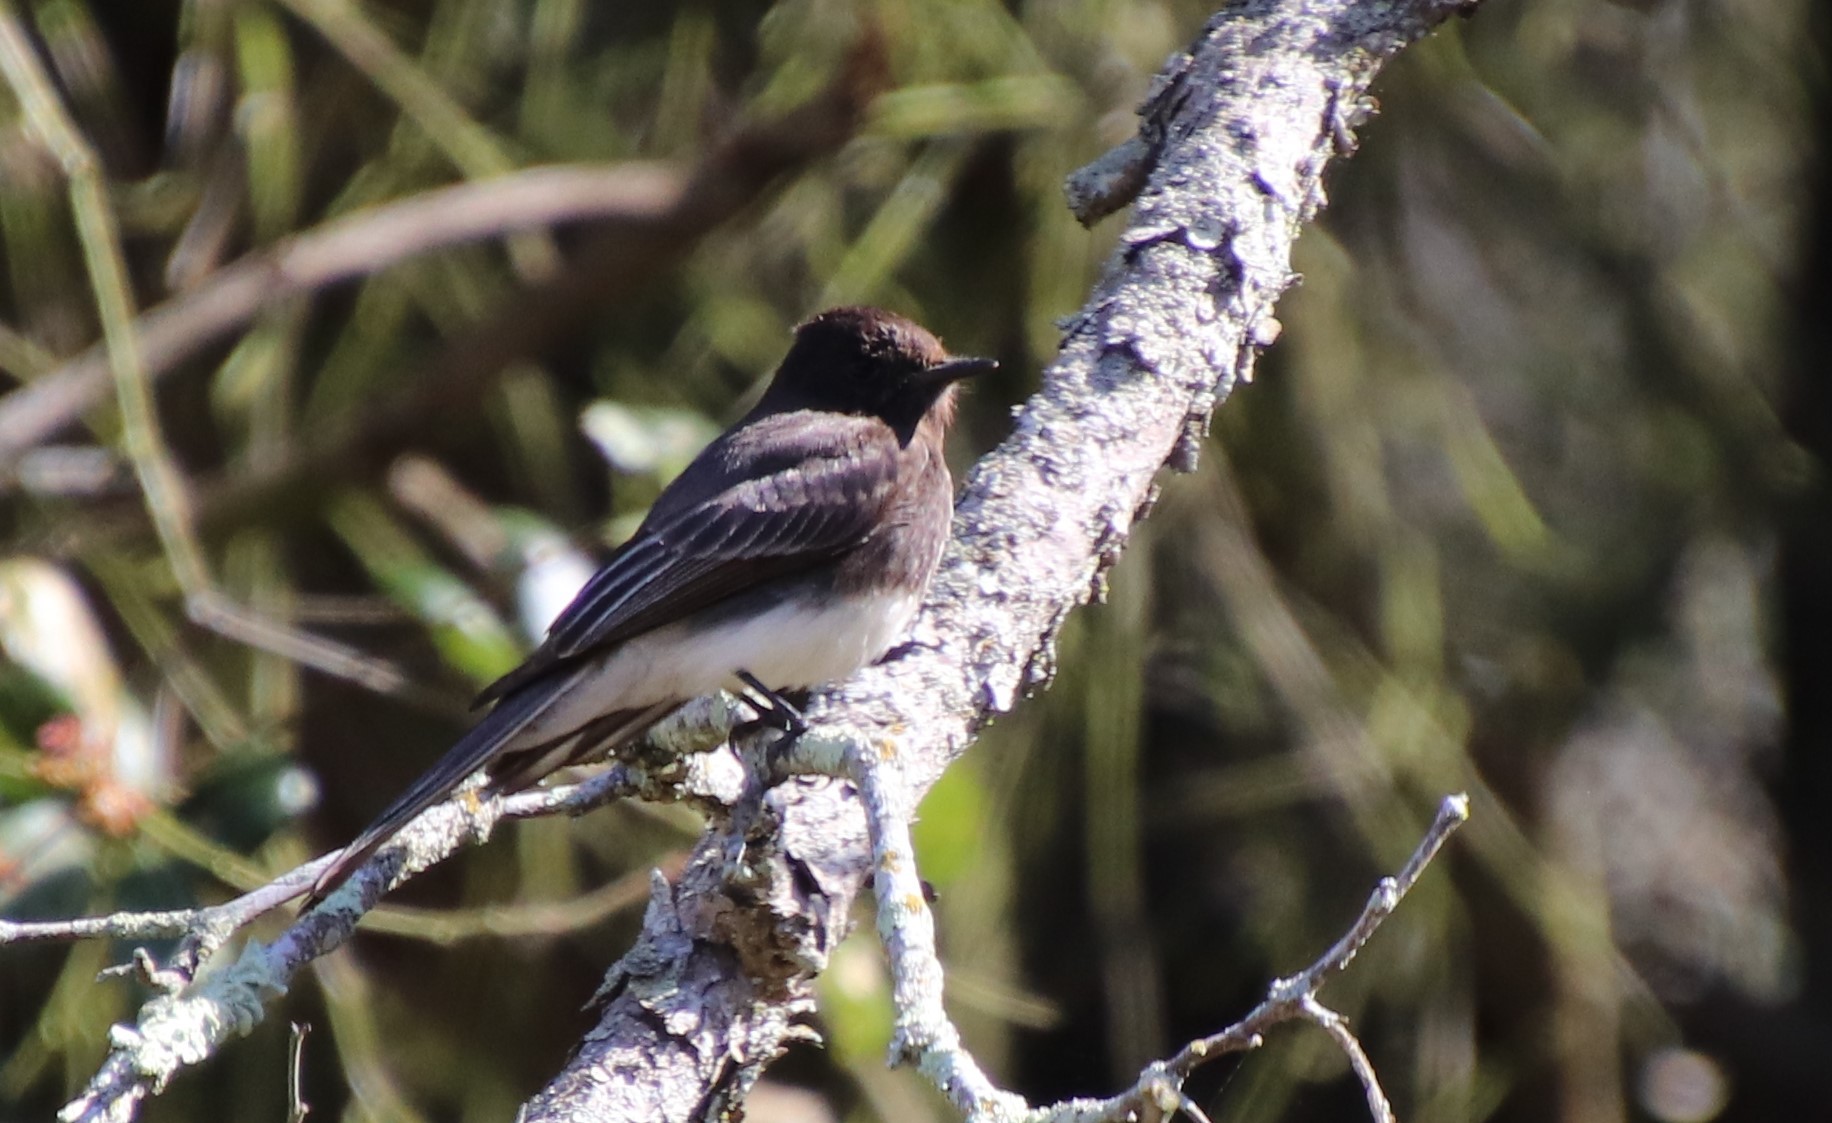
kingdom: Animalia
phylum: Chordata
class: Aves
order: Passeriformes
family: Tyrannidae
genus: Sayornis
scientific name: Sayornis nigricans
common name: Black phoebe
